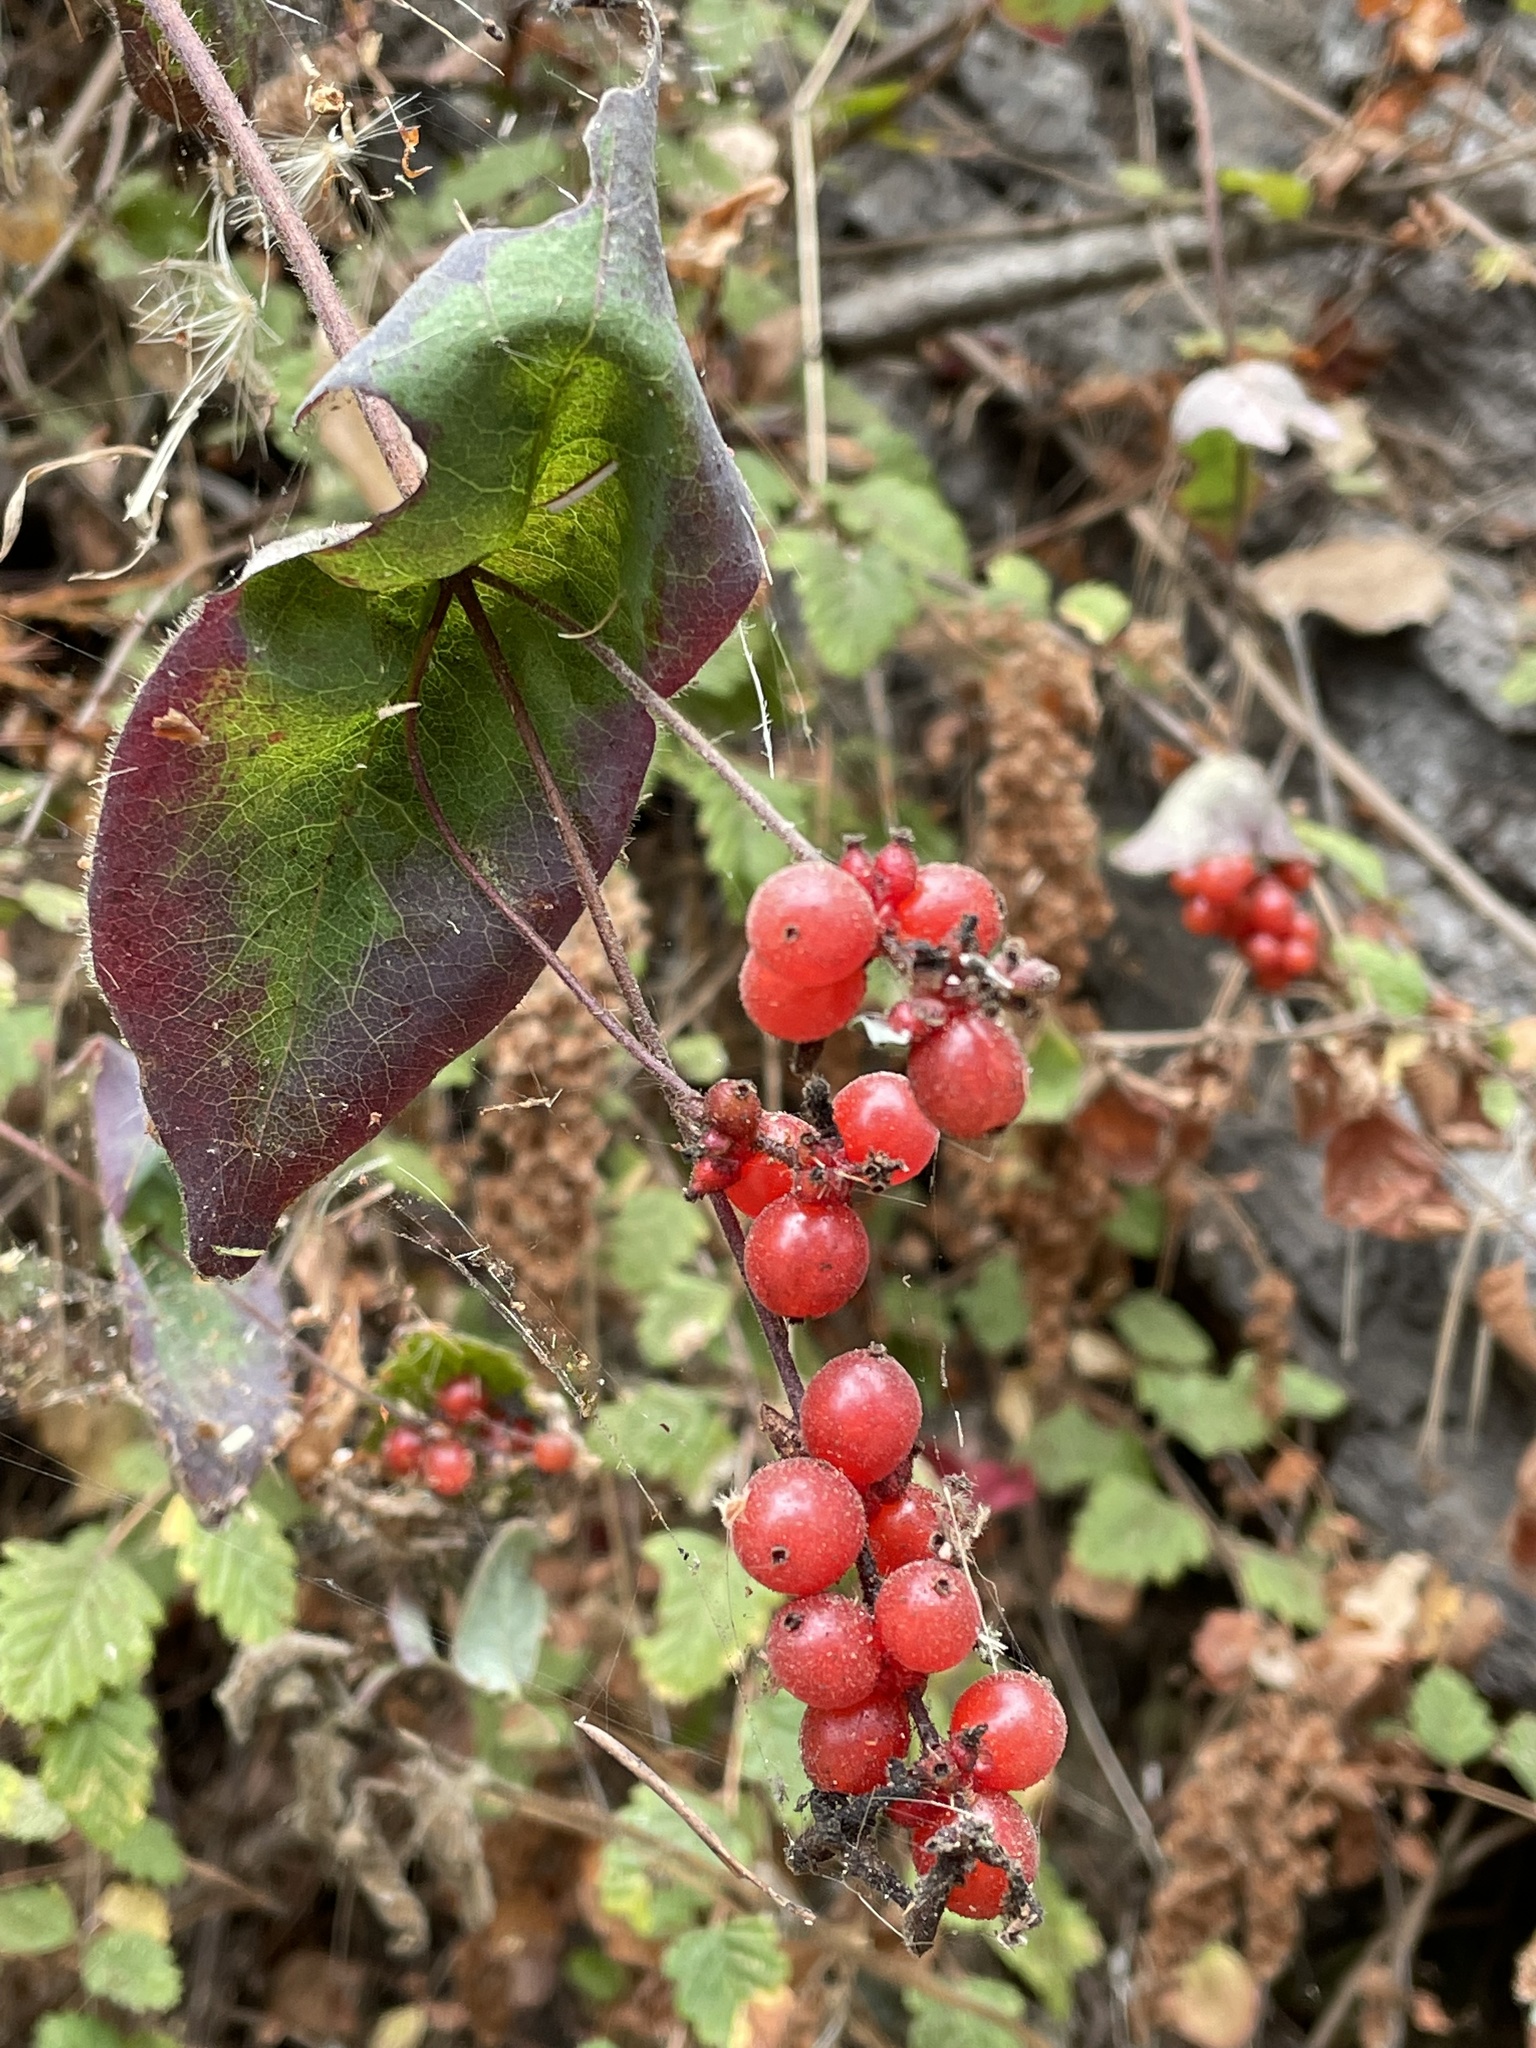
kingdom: Plantae
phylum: Tracheophyta
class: Magnoliopsida
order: Dipsacales
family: Caprifoliaceae
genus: Lonicera
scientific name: Lonicera hispidula
